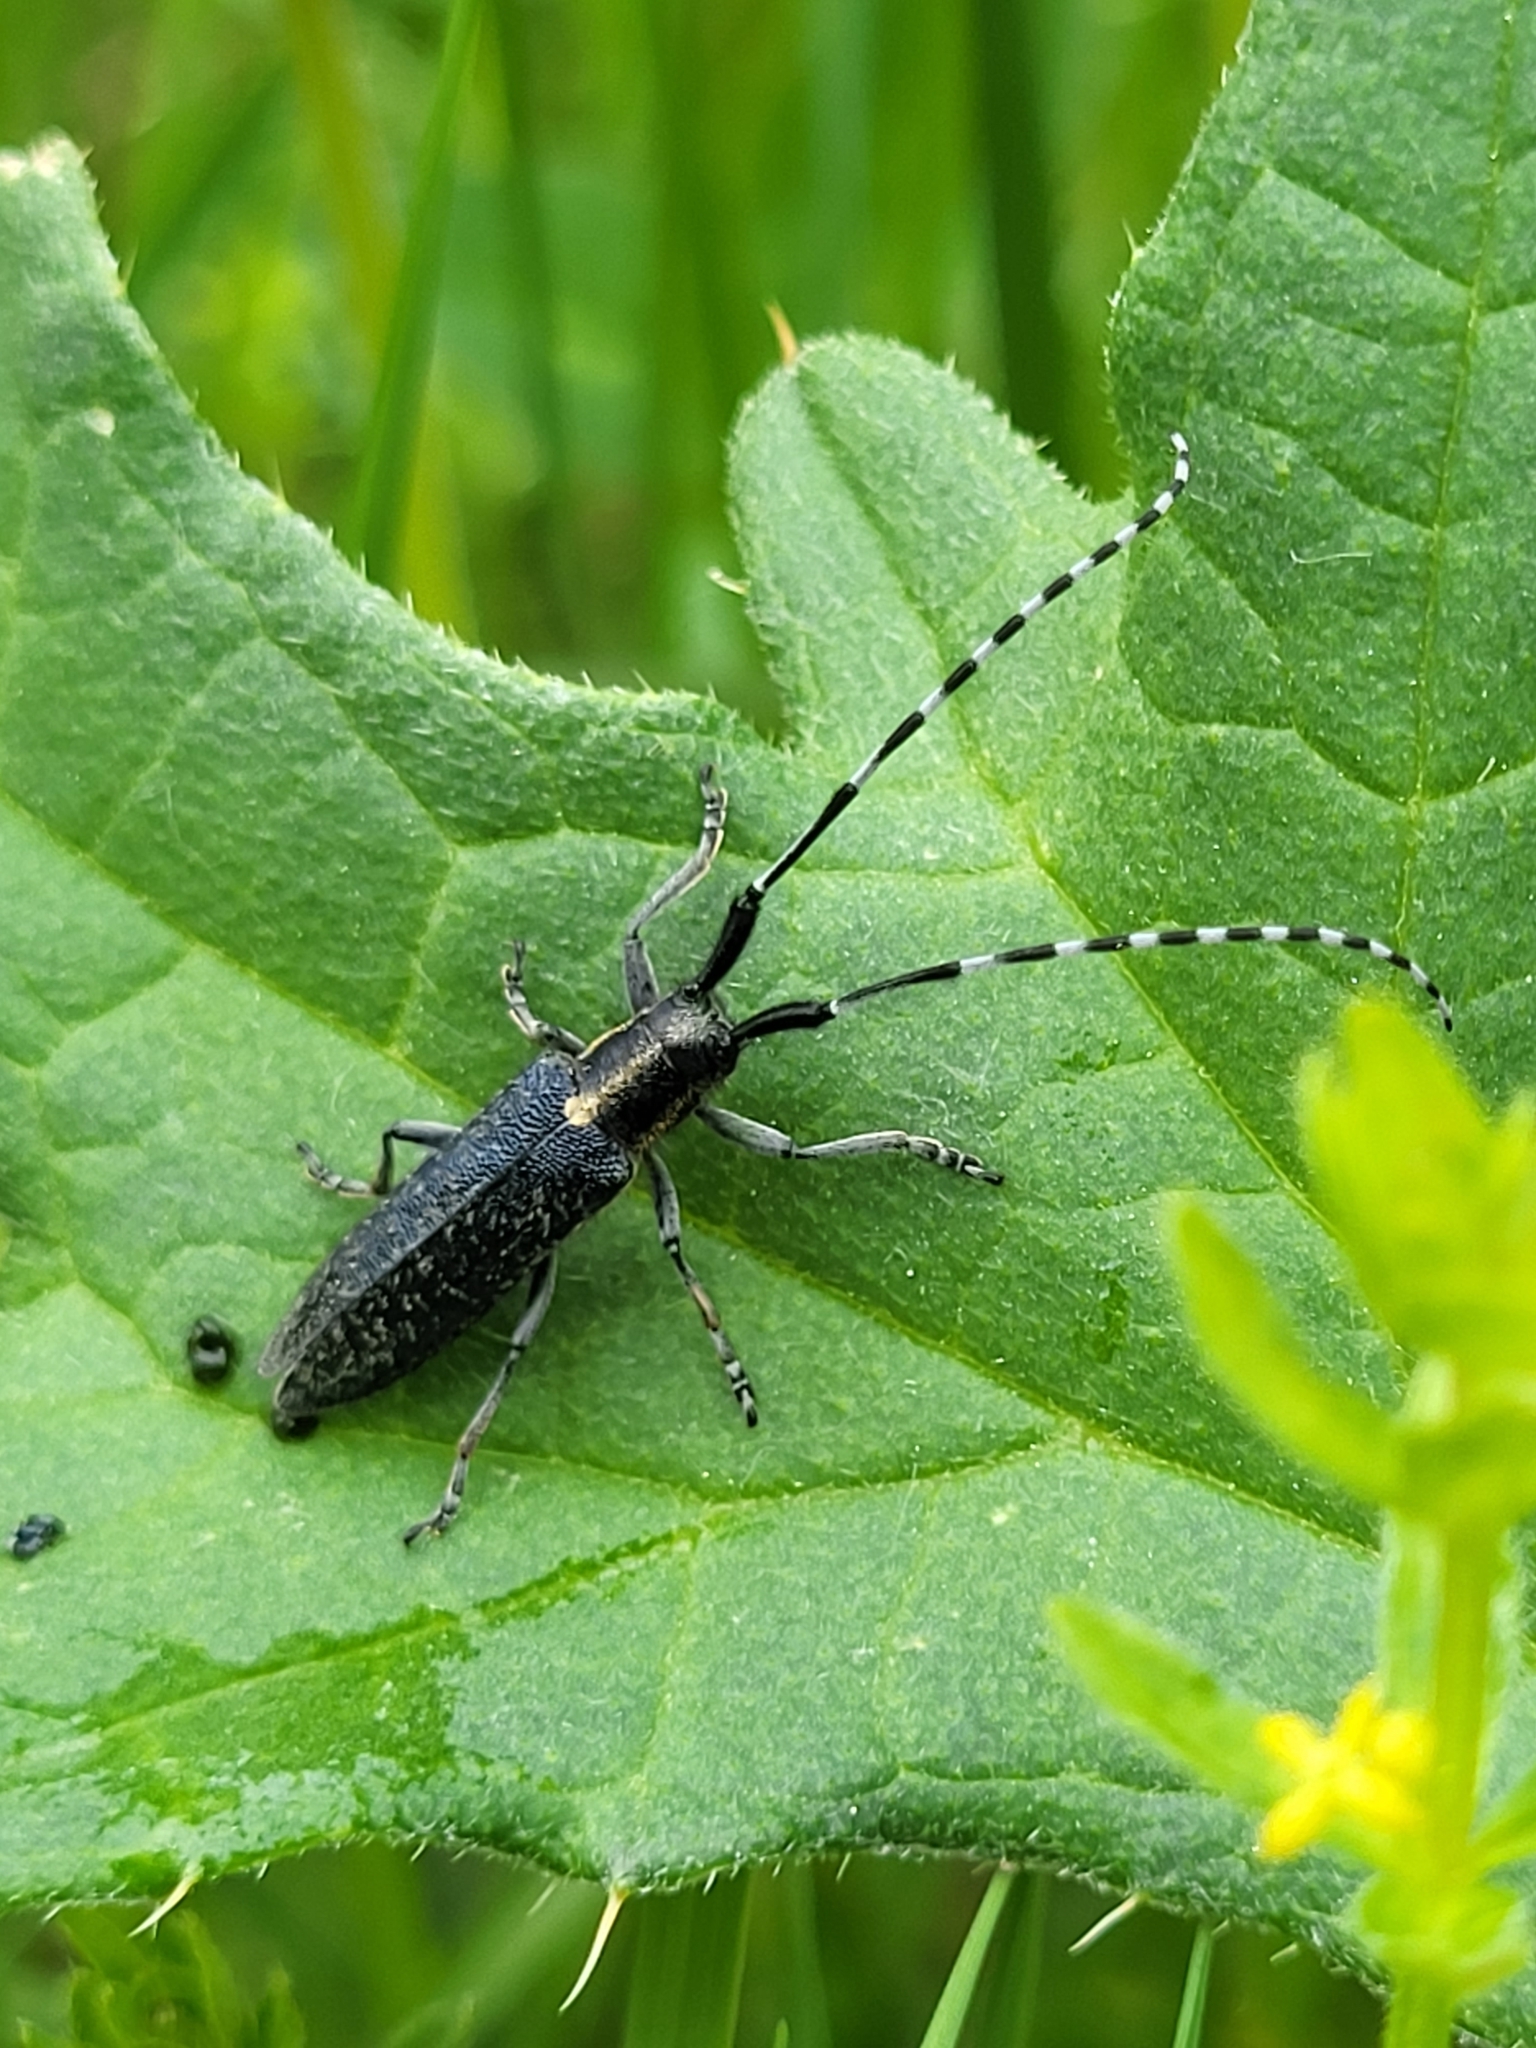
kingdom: Animalia
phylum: Arthropoda
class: Insecta
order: Coleoptera
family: Cerambycidae
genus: Agapanthia
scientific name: Agapanthia lederi
